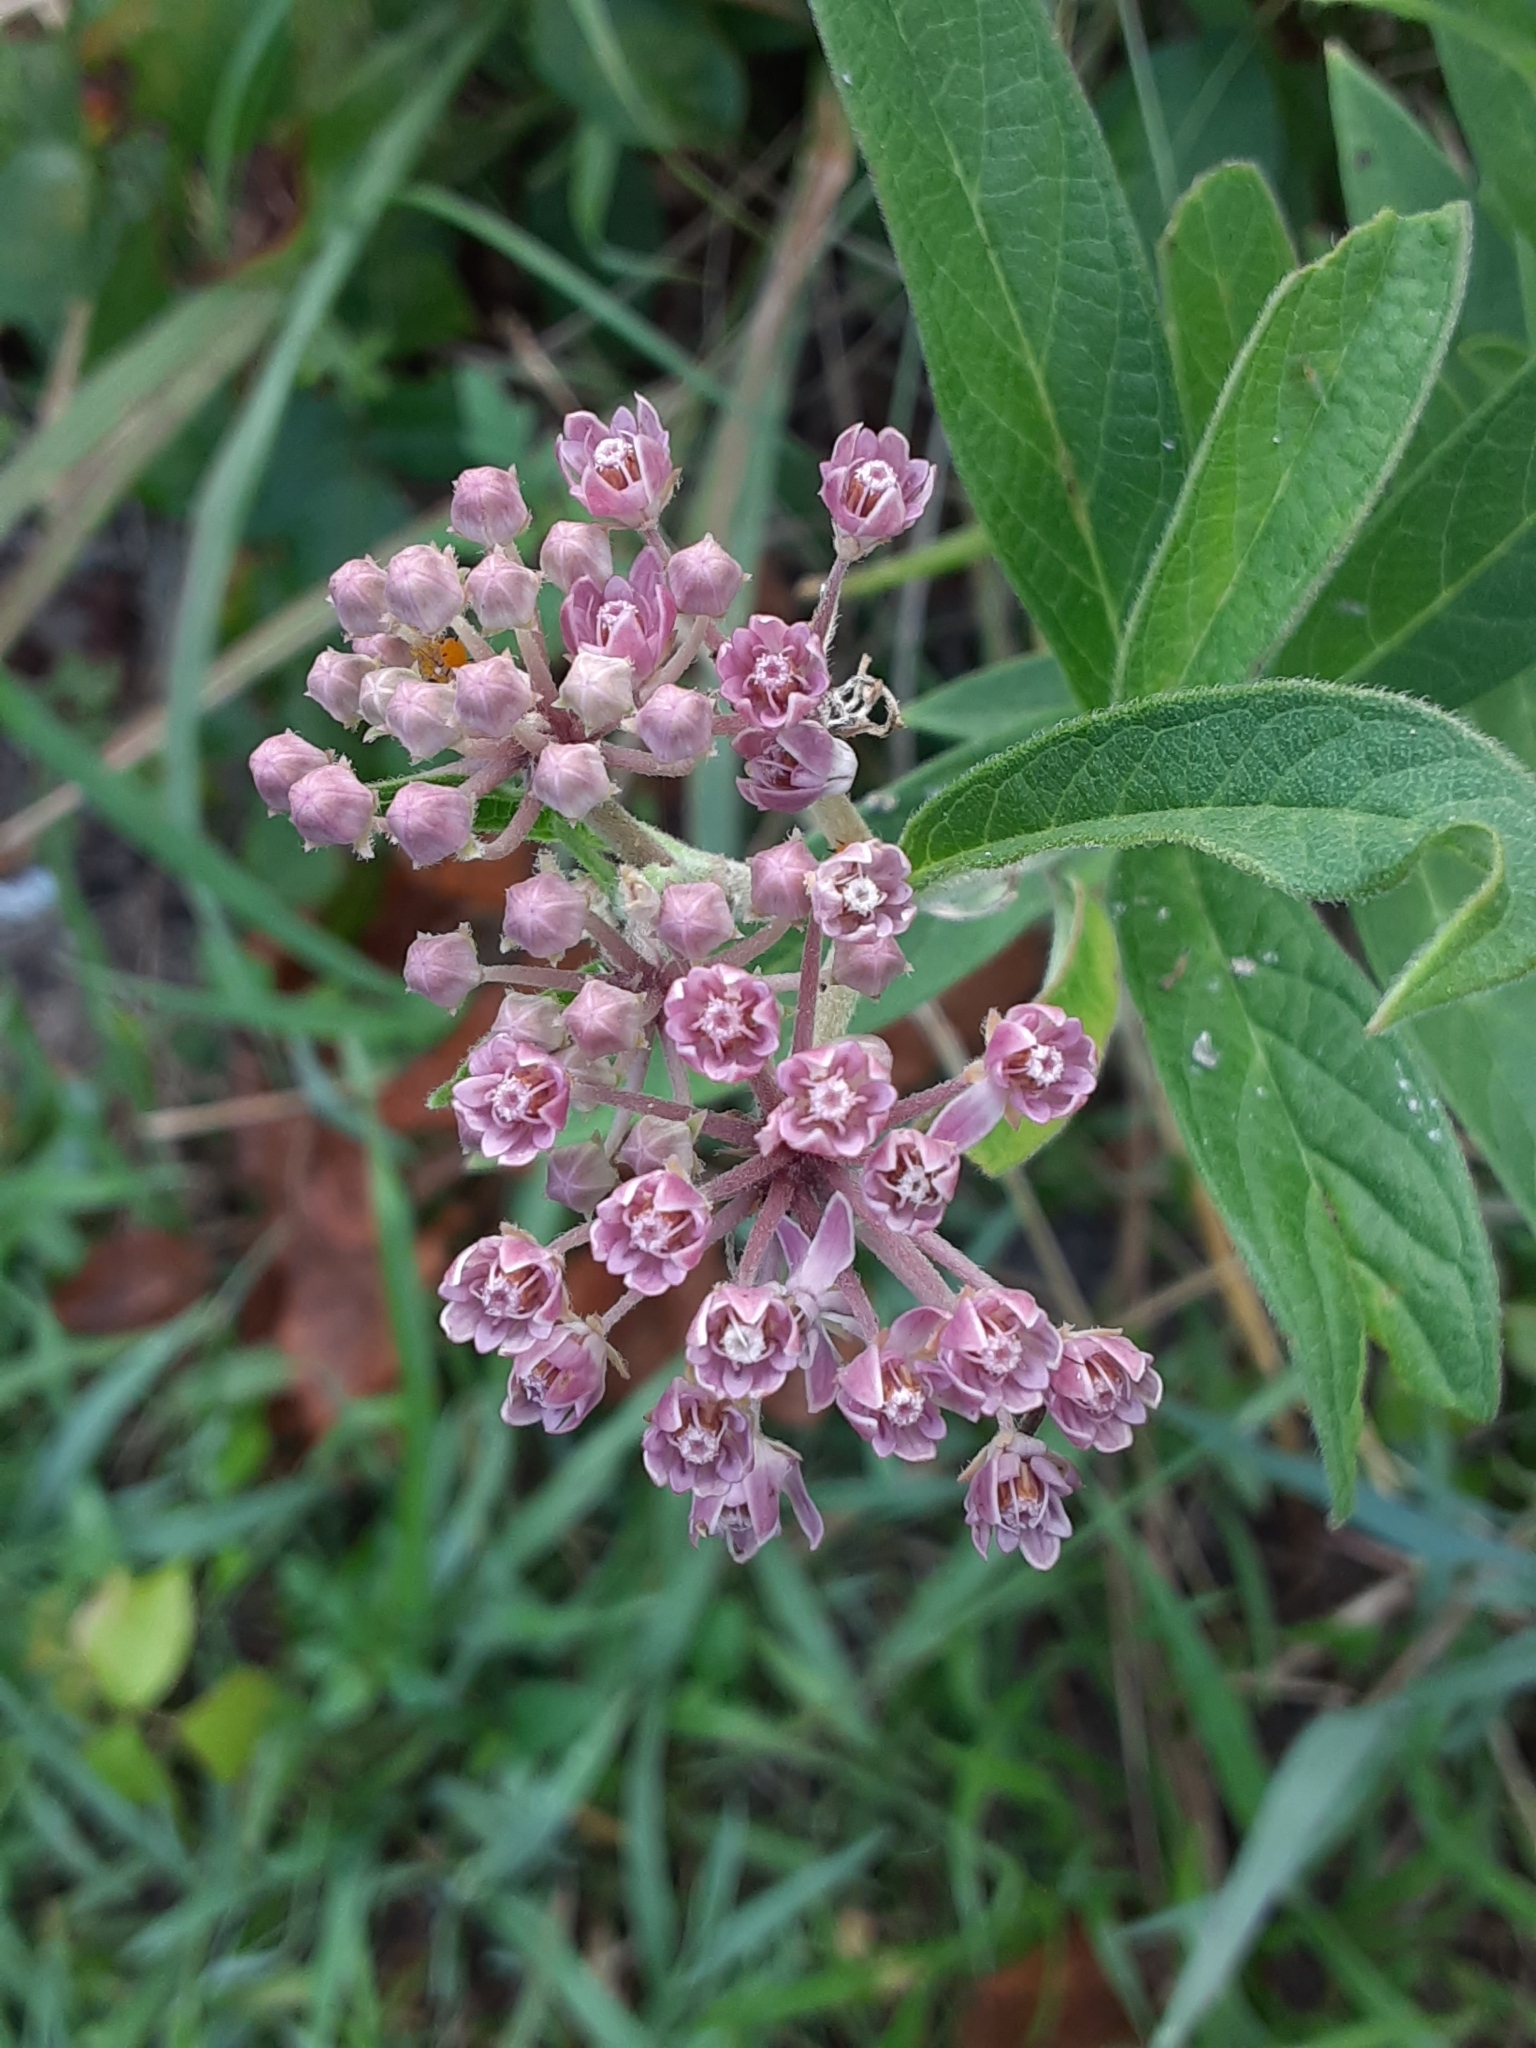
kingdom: Plantae
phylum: Tracheophyta
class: Magnoliopsida
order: Gentianales
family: Apocynaceae
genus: Asclepias
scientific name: Asclepias incarnata
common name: Swamp milkweed
